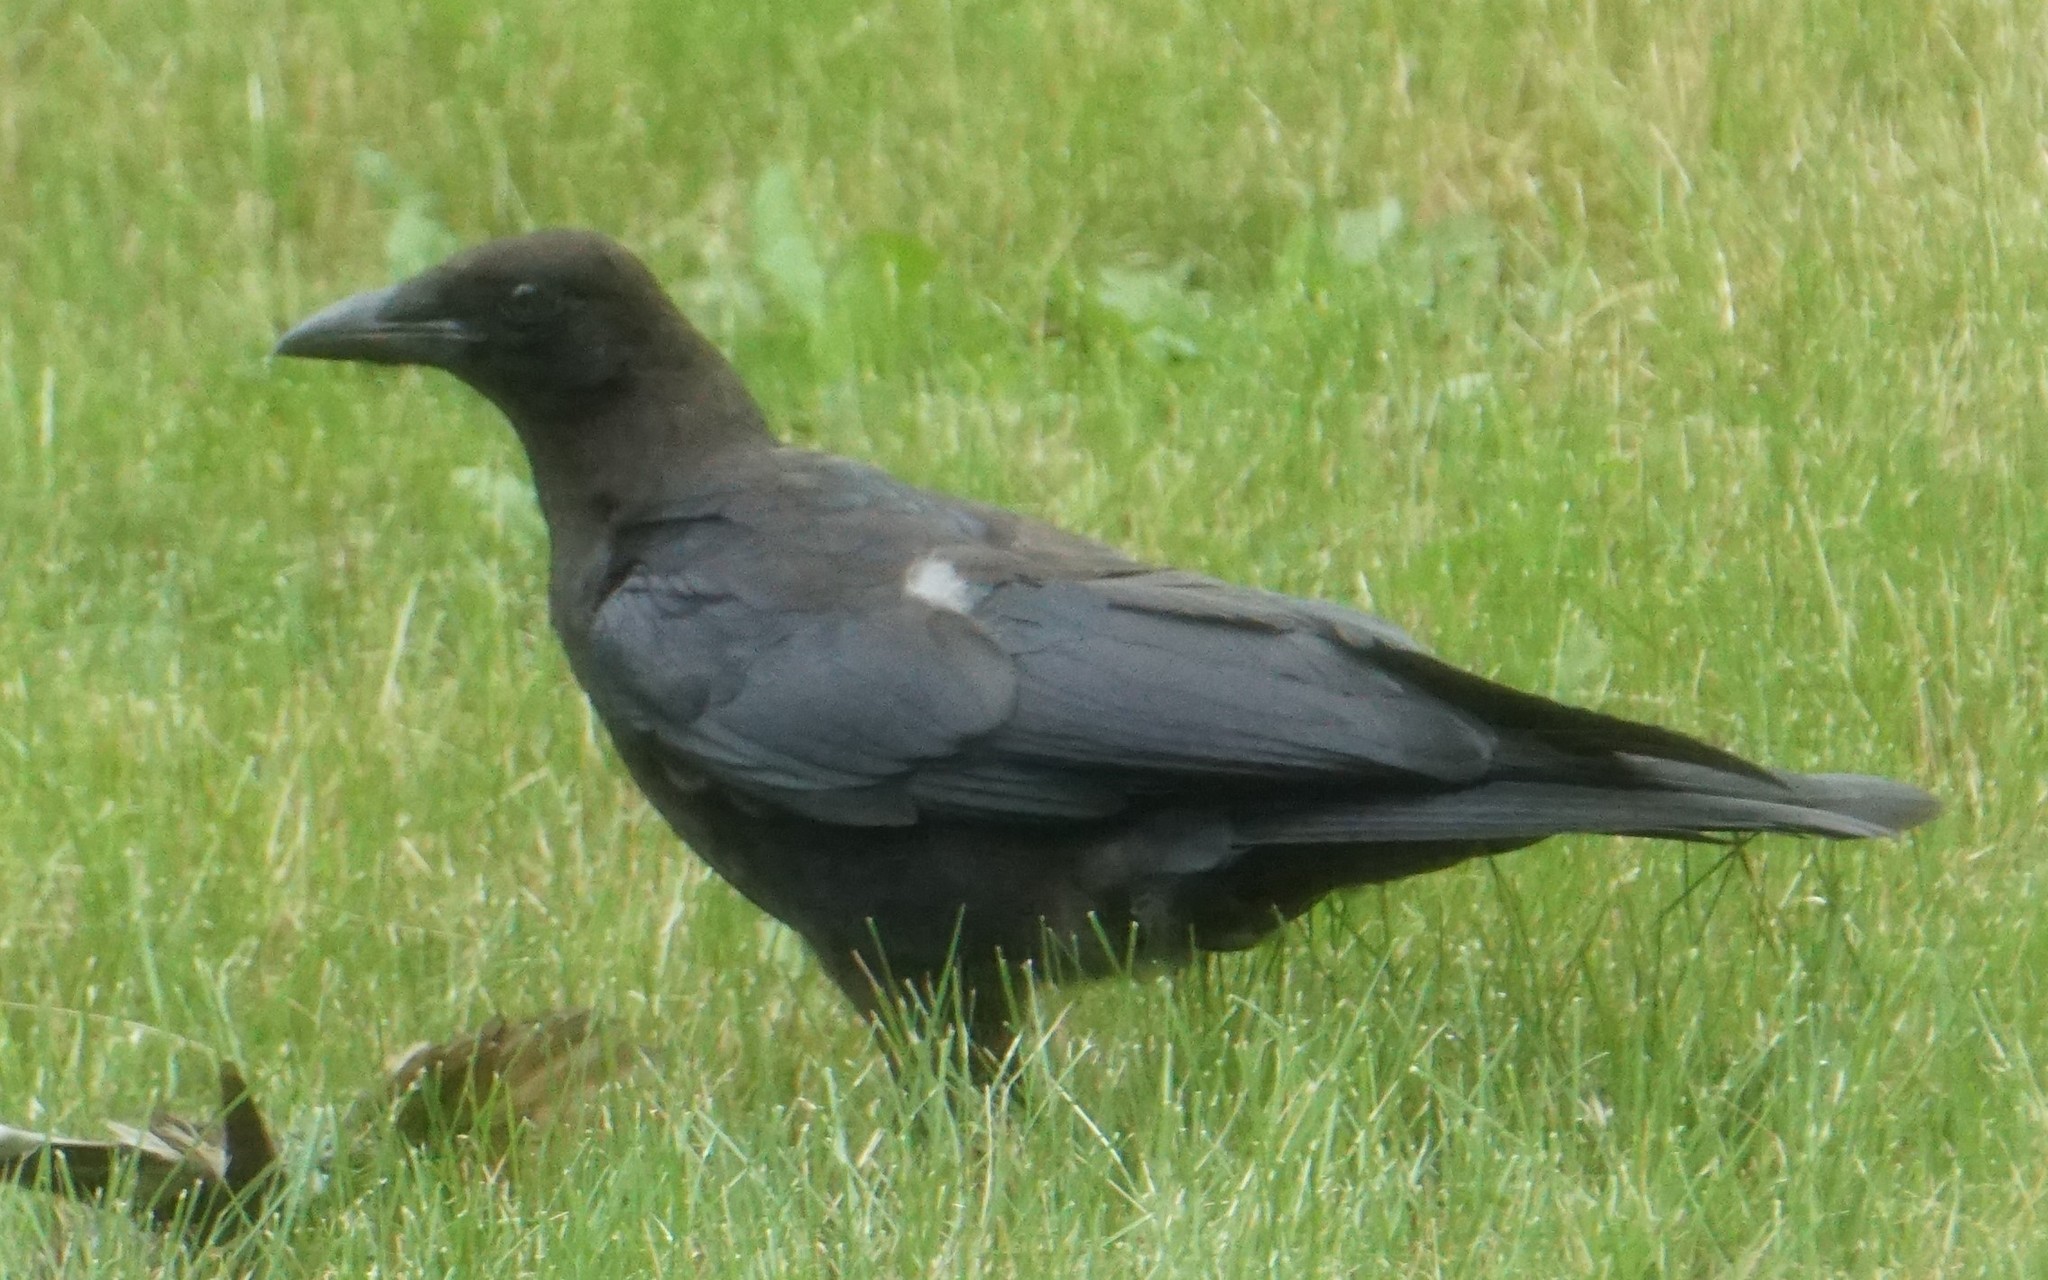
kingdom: Animalia
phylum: Chordata
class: Aves
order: Passeriformes
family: Corvidae
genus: Corvus
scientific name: Corvus brachyrhynchos
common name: American crow
